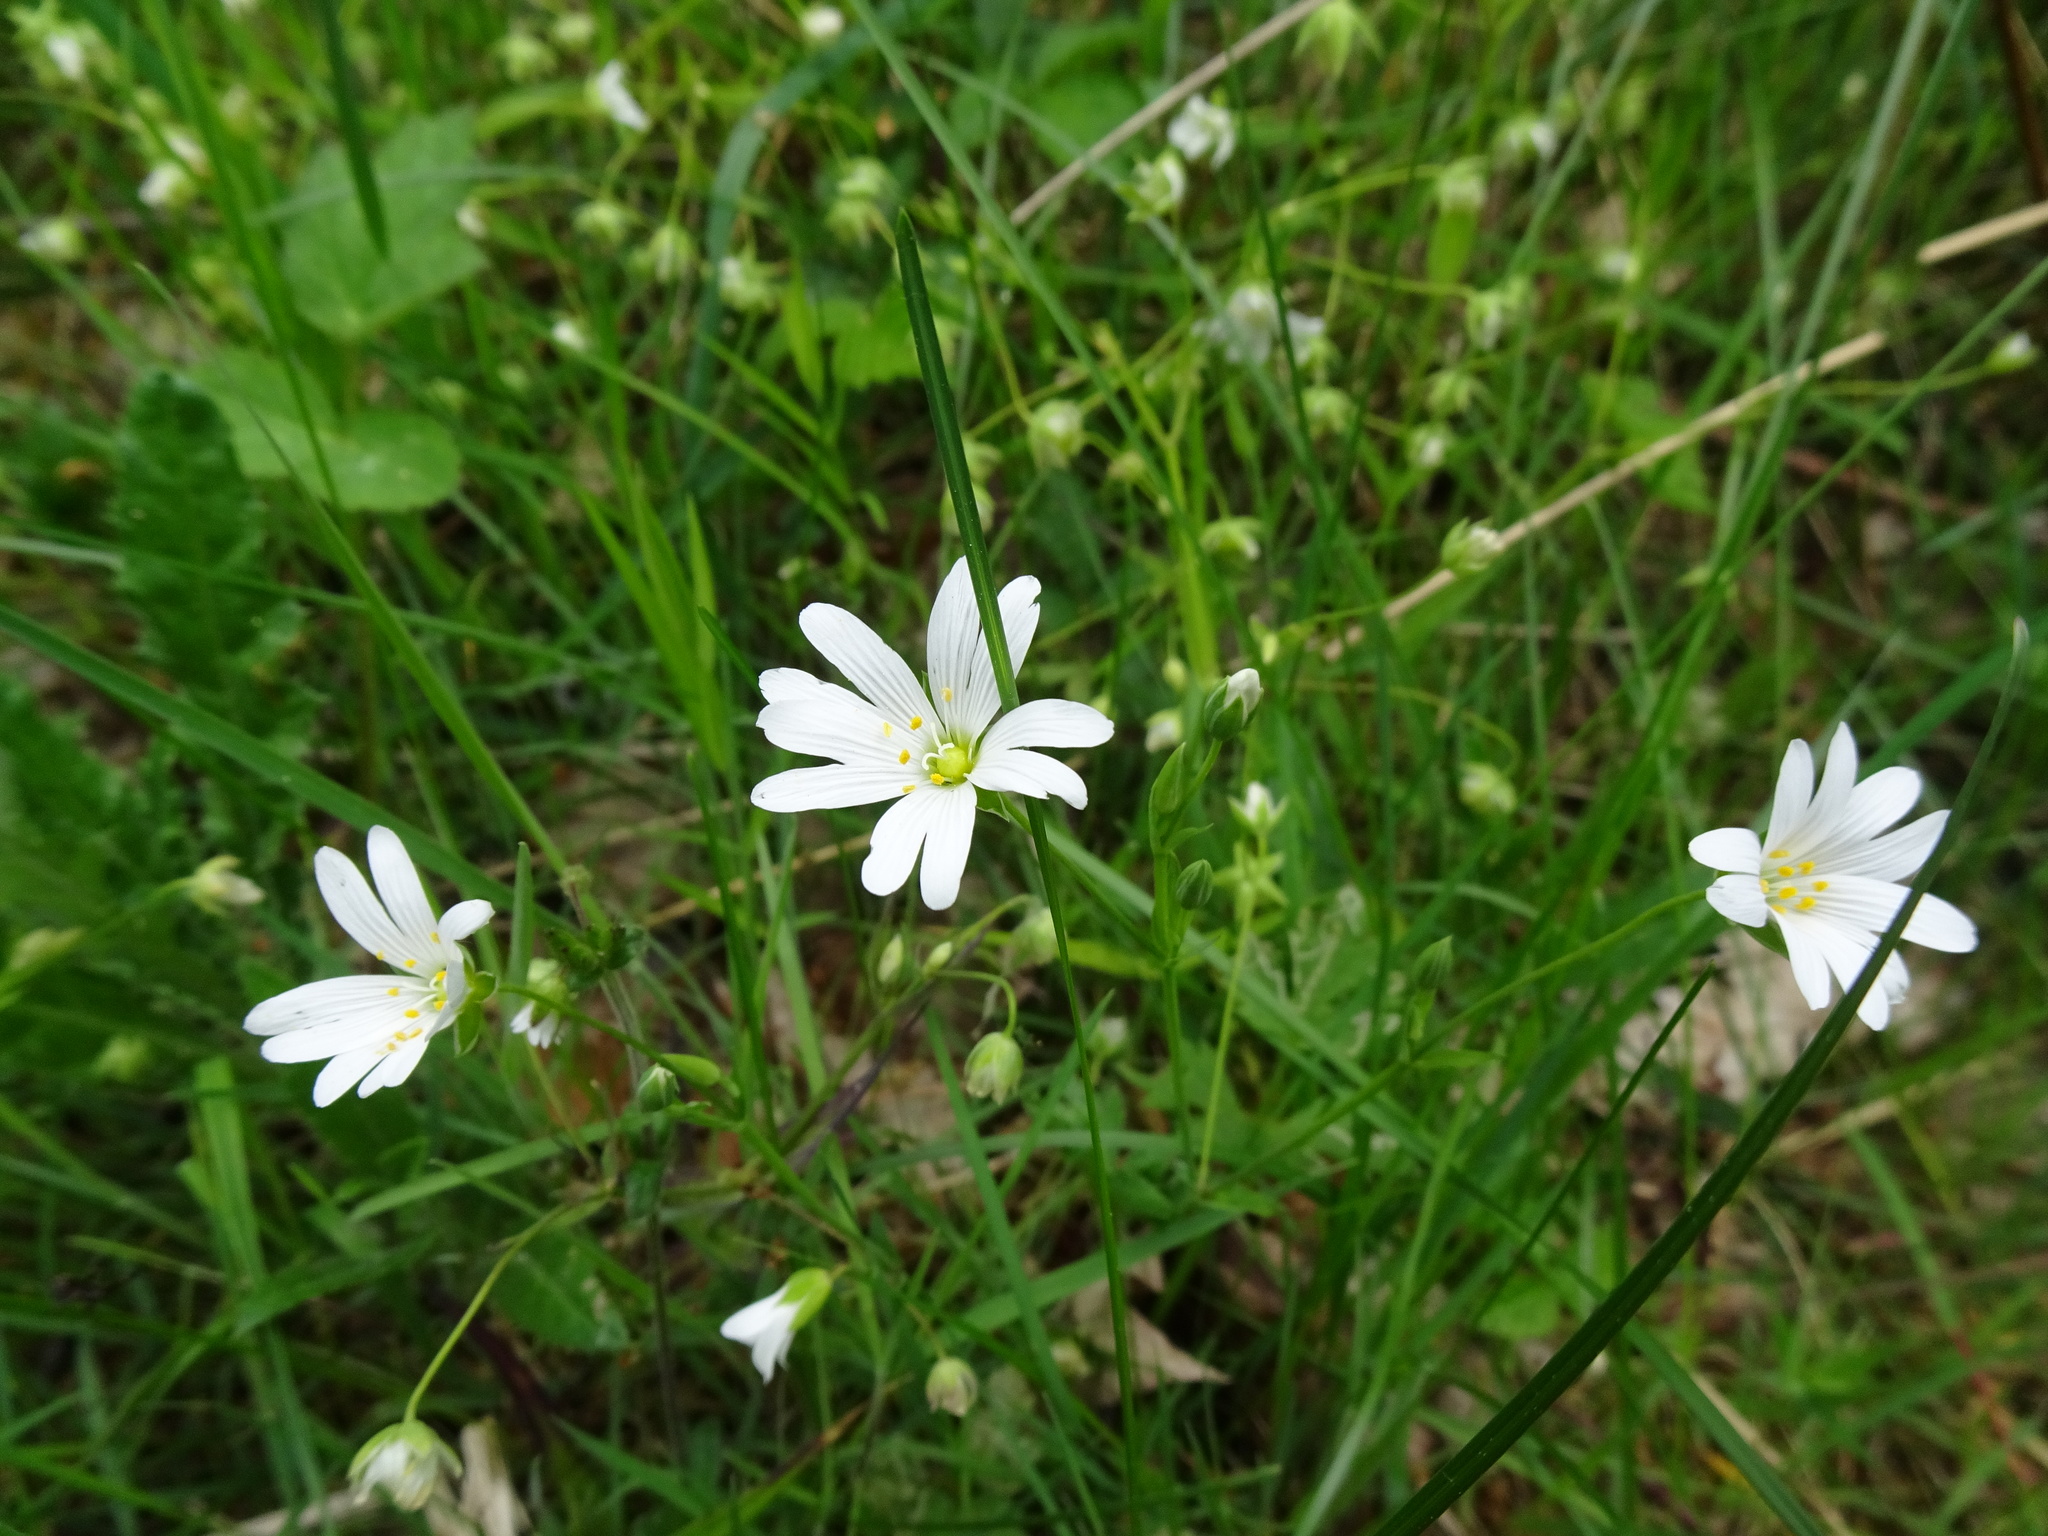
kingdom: Plantae
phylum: Tracheophyta
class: Magnoliopsida
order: Caryophyllales
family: Caryophyllaceae
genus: Rabelera
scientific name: Rabelera holostea
